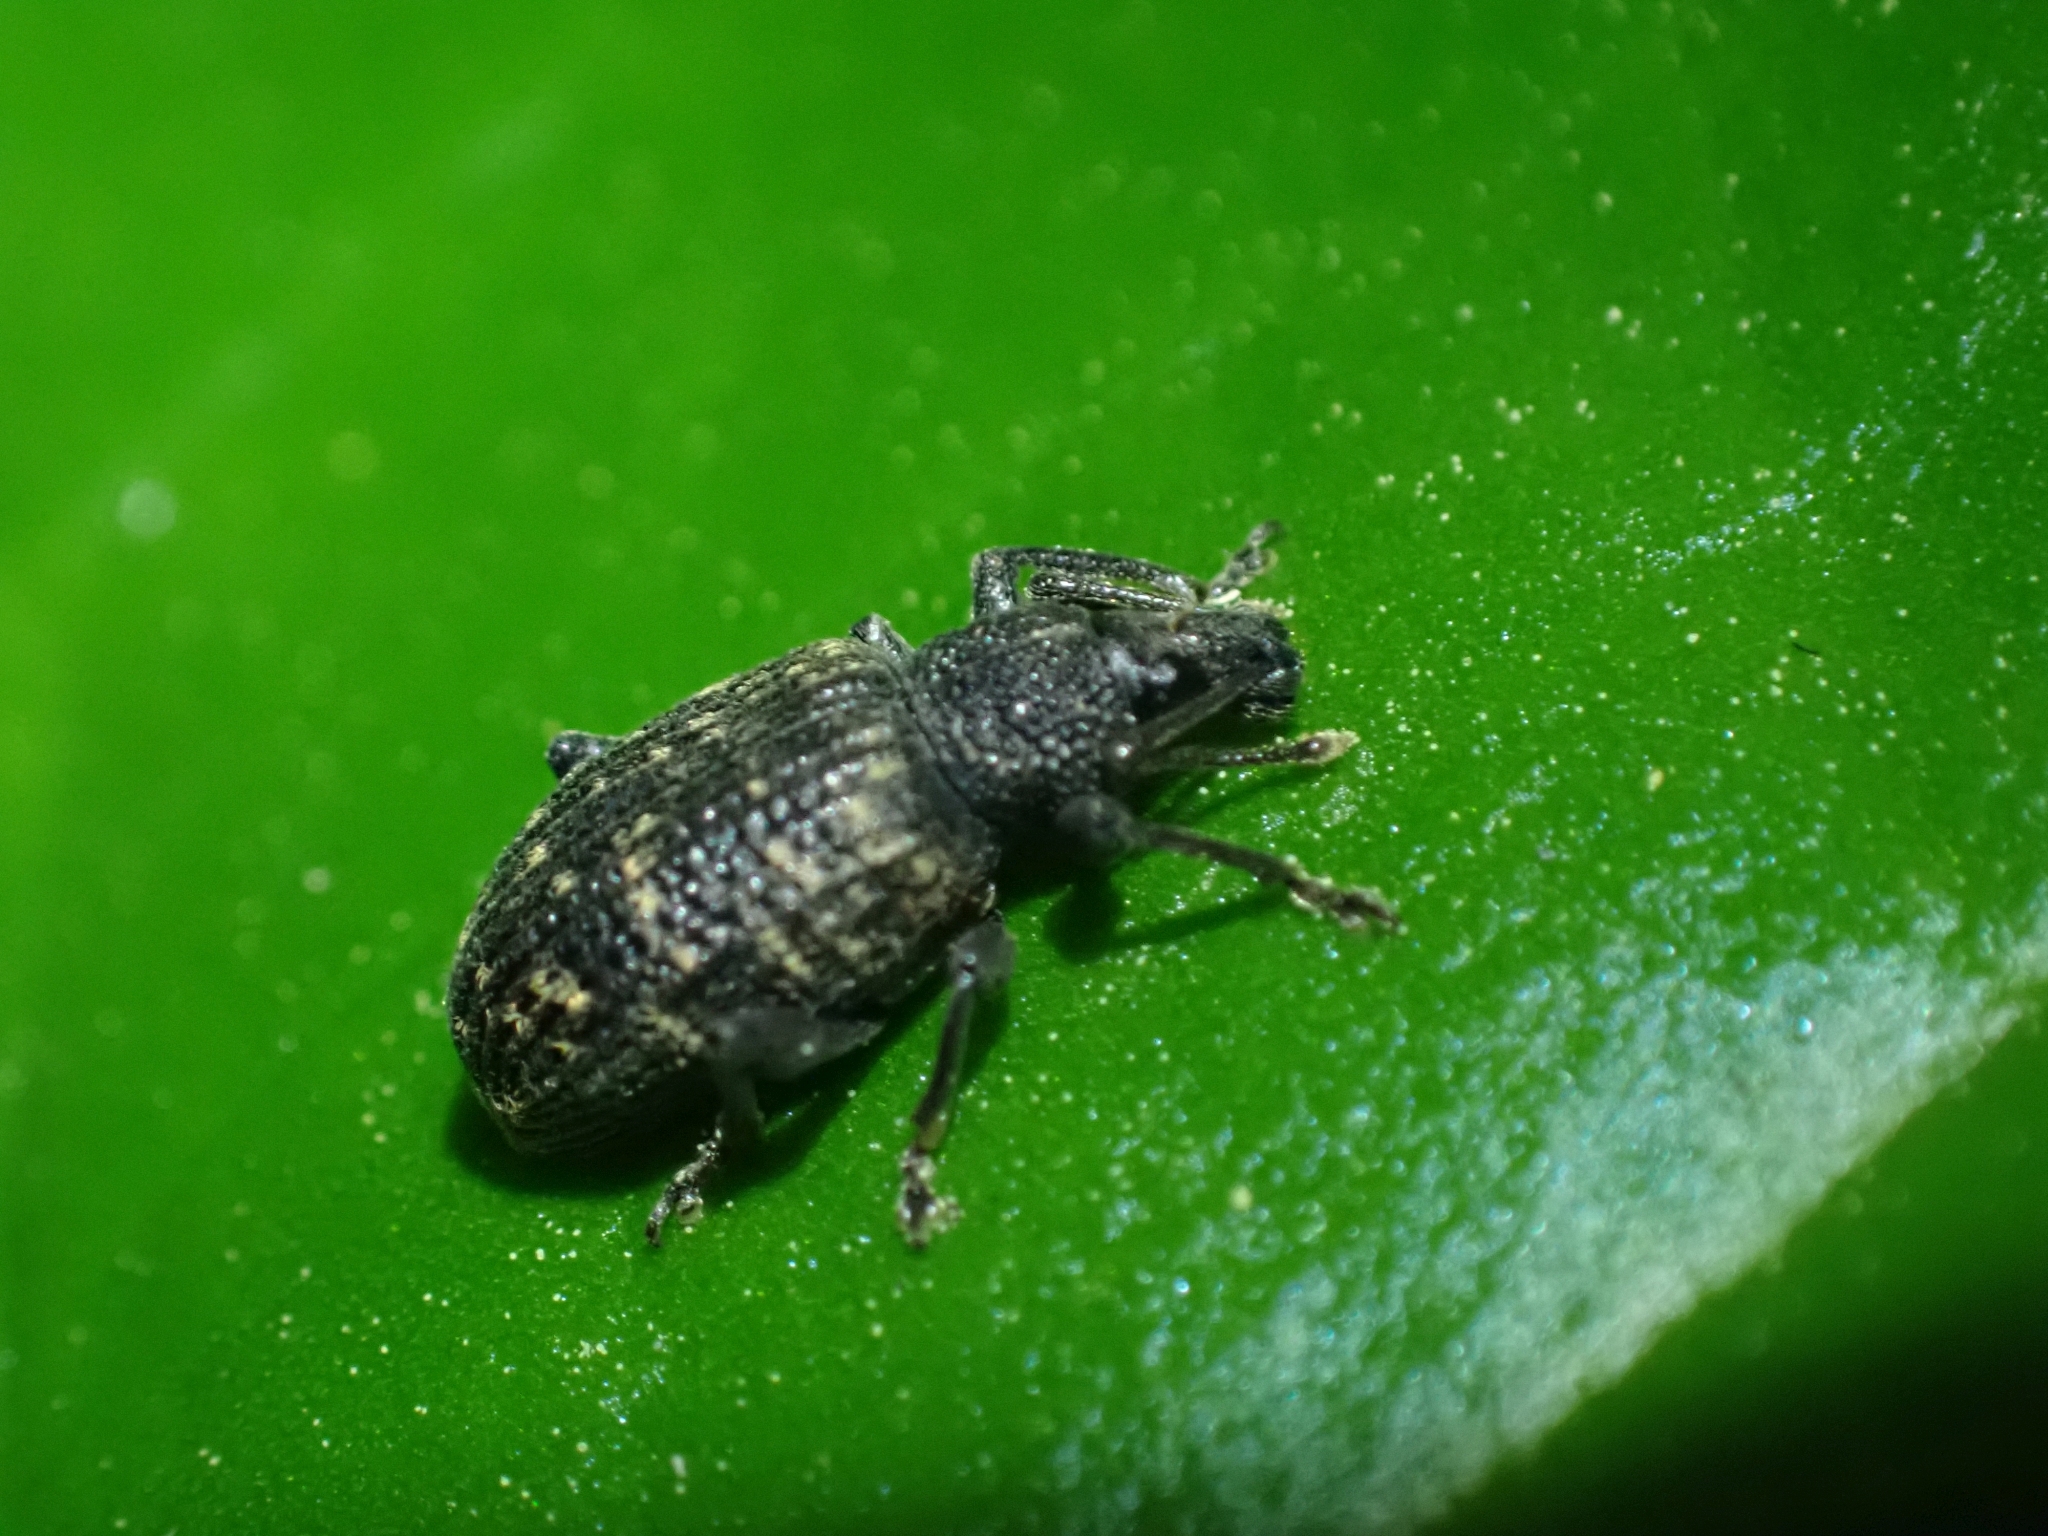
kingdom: Animalia
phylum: Arthropoda
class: Insecta
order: Coleoptera
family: Curculionidae
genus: Otiorhynchus
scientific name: Otiorhynchus sulcatus
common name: Black vine weevil
